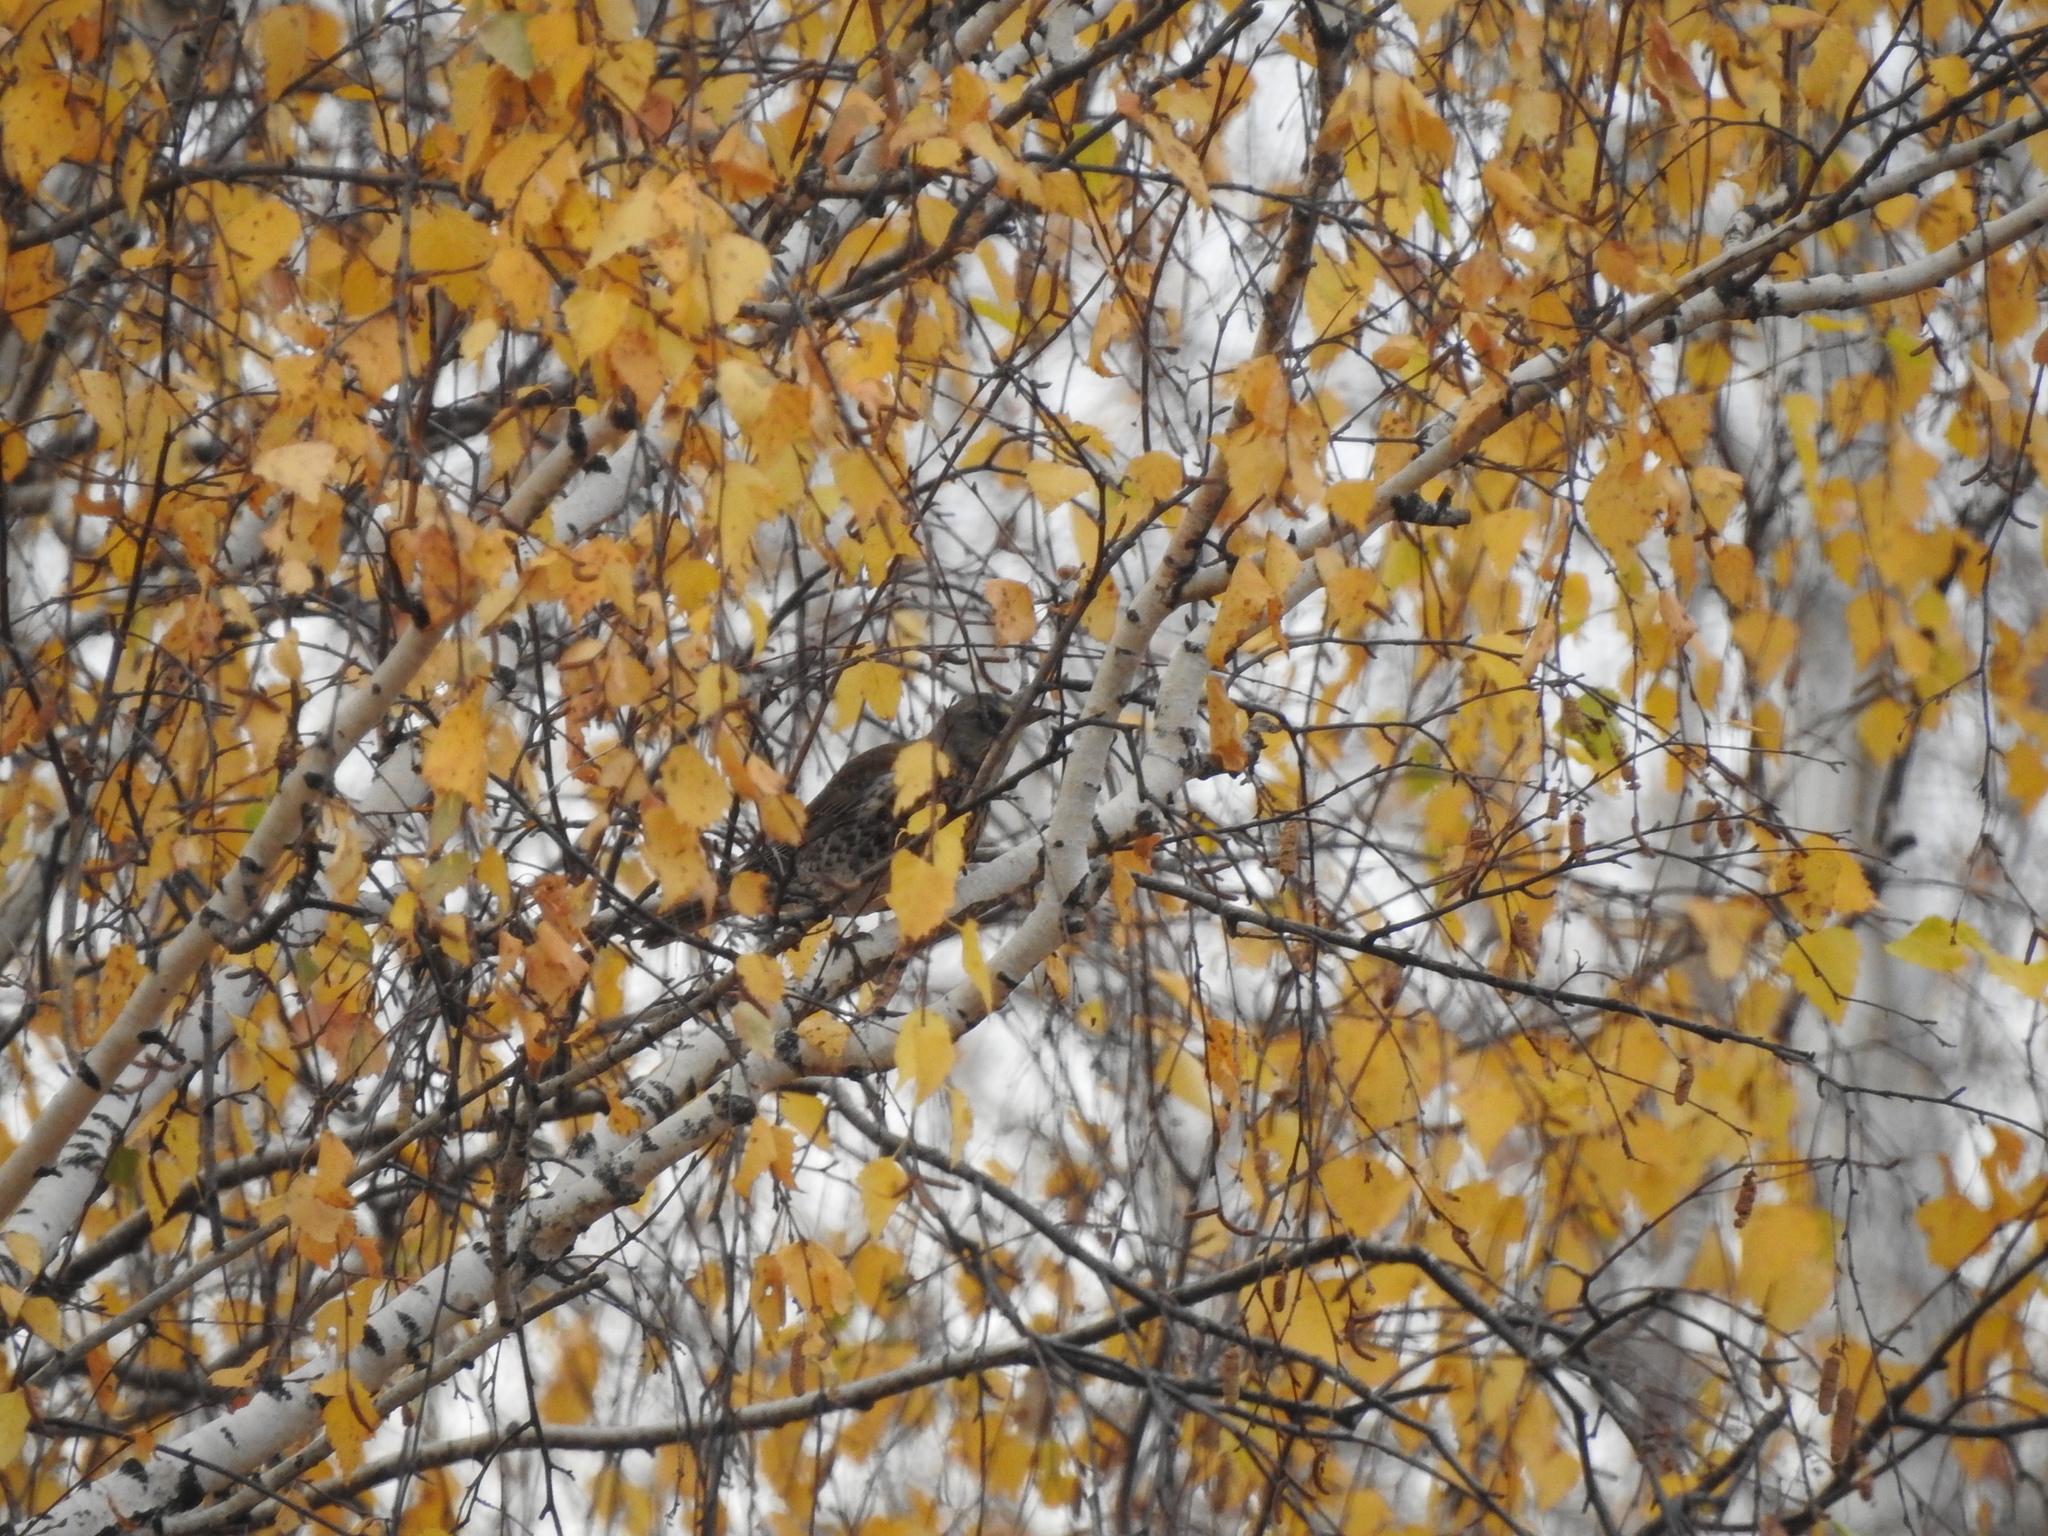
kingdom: Animalia
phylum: Chordata
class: Aves
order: Passeriformes
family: Turdidae
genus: Turdus
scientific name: Turdus pilaris
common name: Fieldfare
